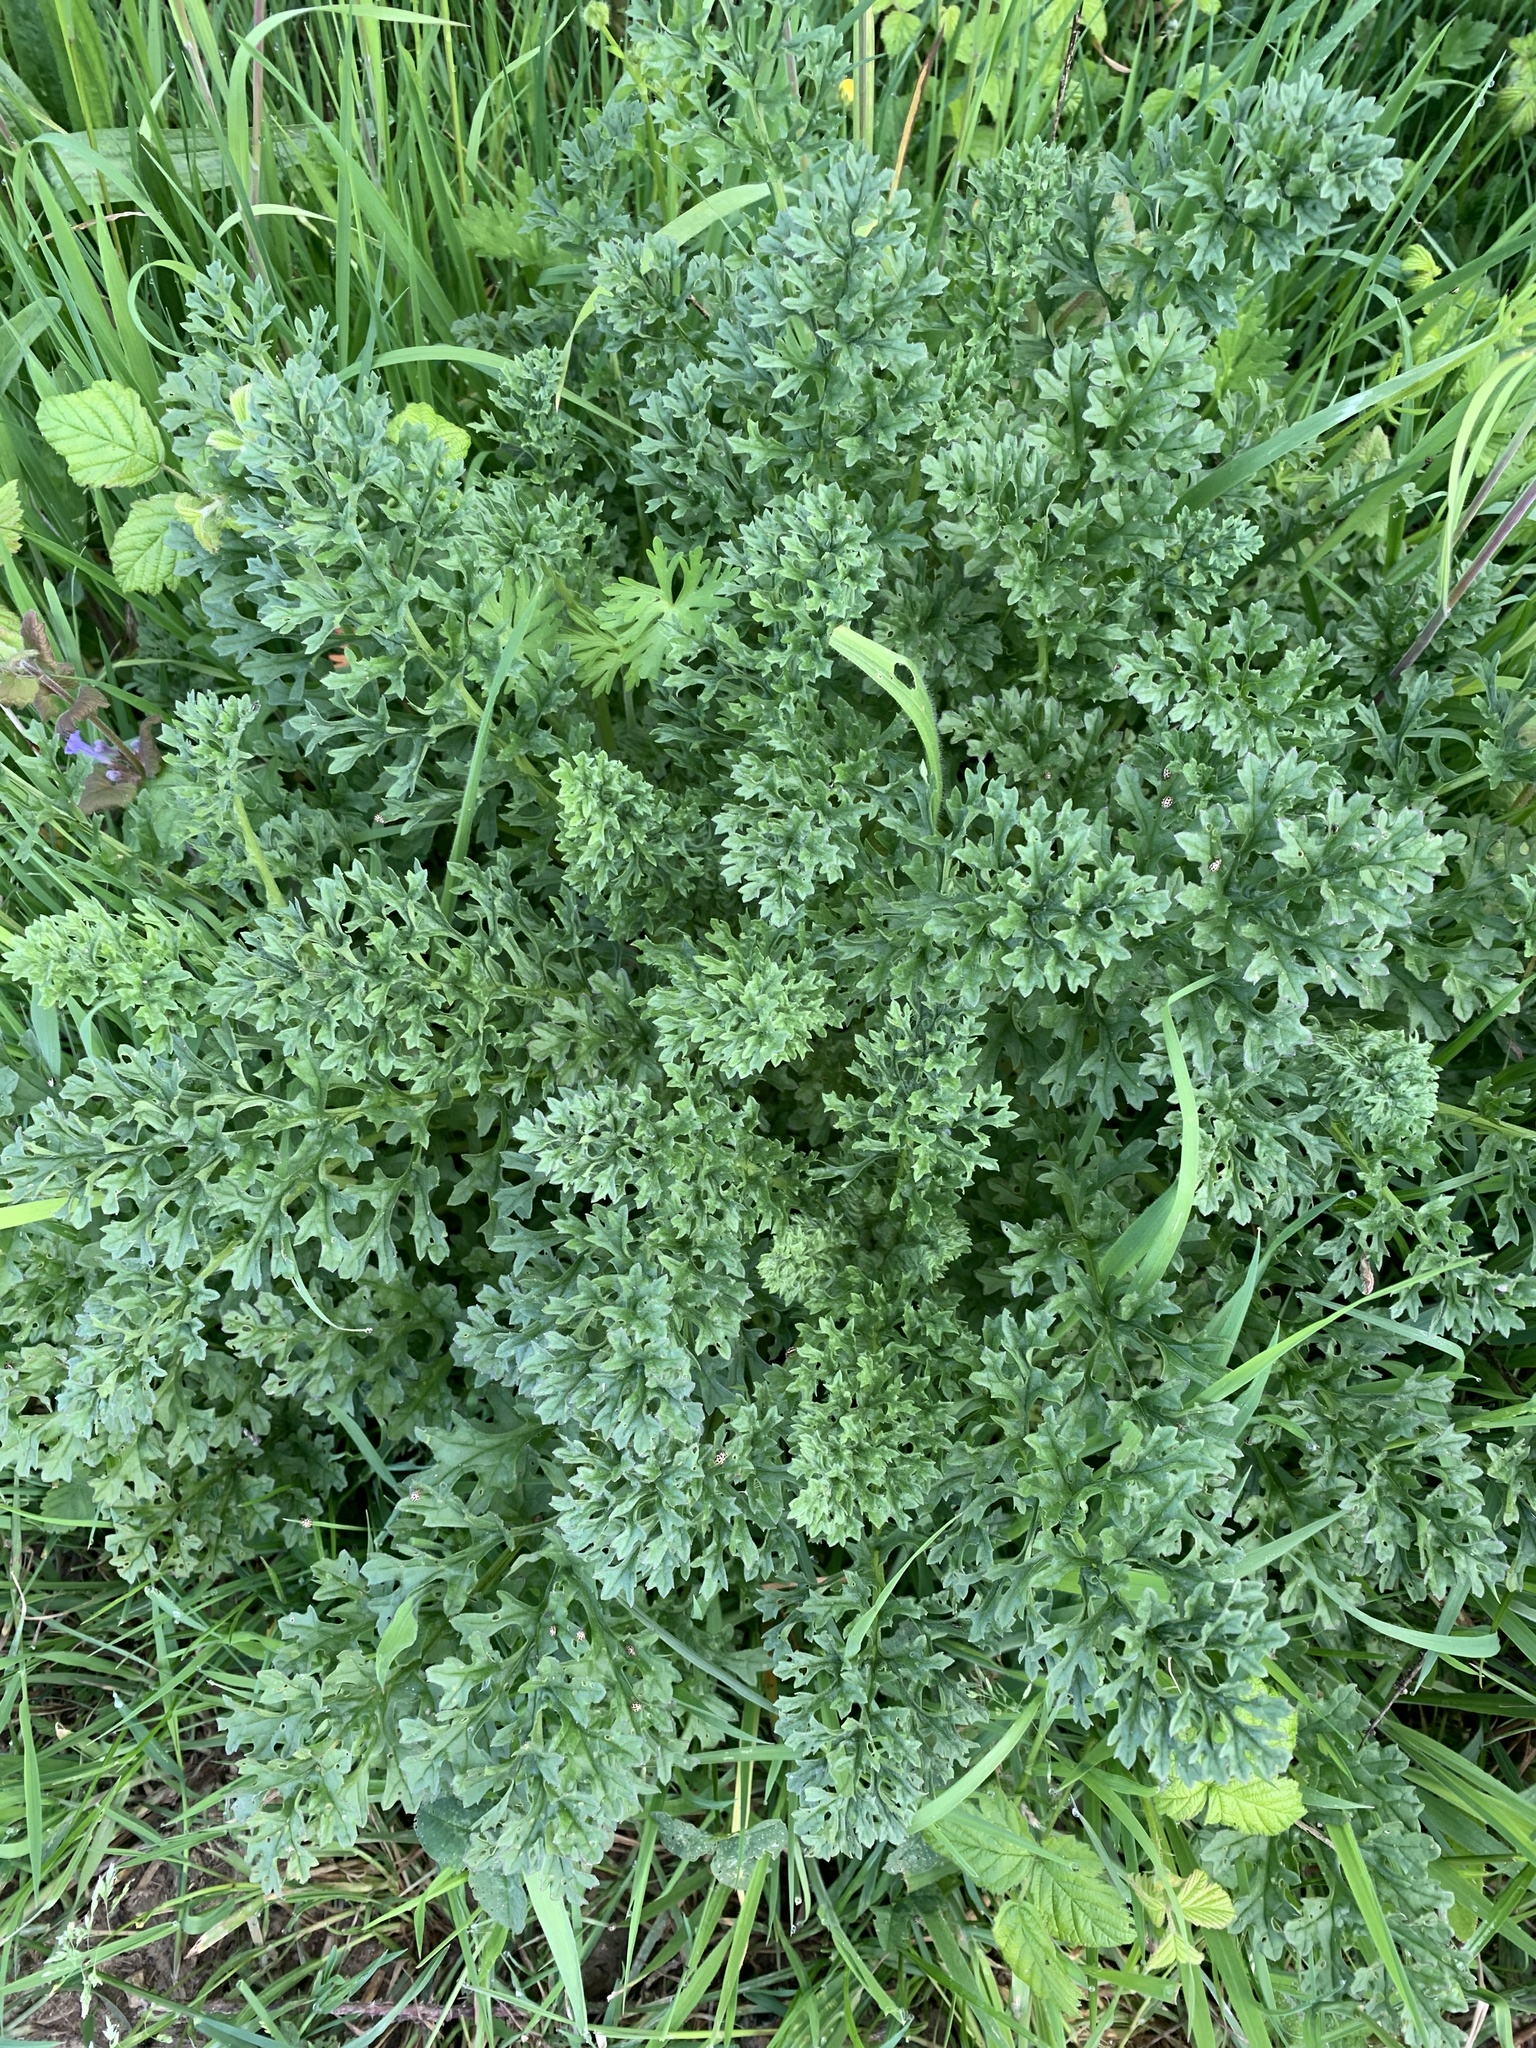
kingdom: Plantae
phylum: Tracheophyta
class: Magnoliopsida
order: Asterales
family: Asteraceae
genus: Jacobaea
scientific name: Jacobaea vulgaris
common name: Stinking willie
